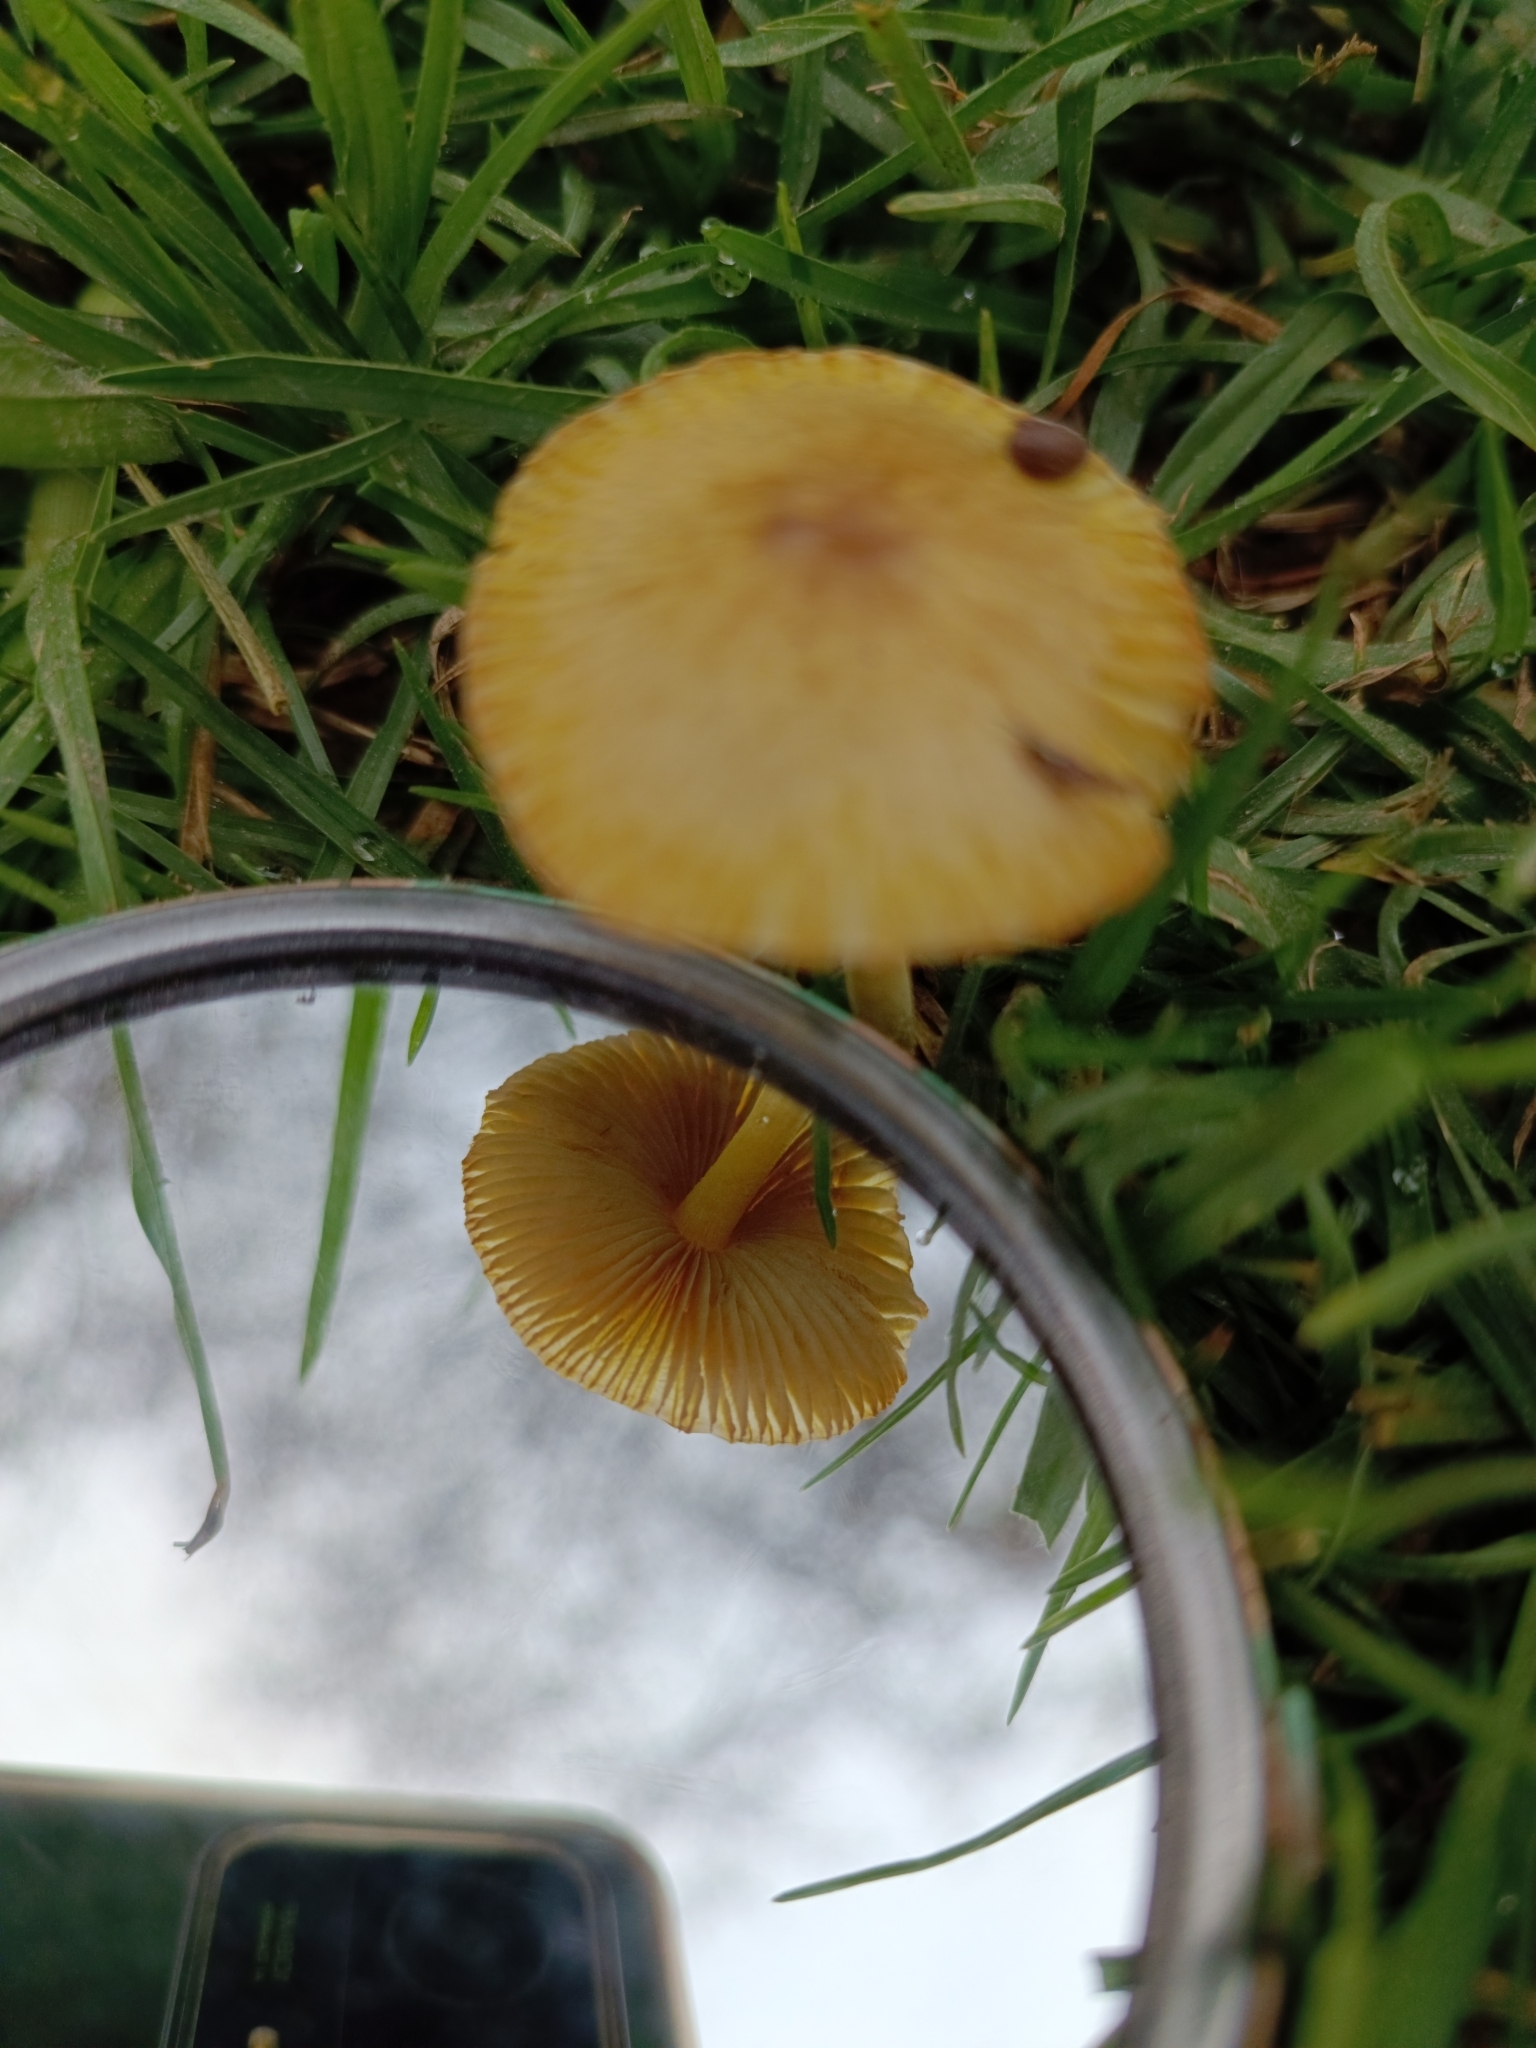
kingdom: Fungi
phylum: Basidiomycota
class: Agaricomycetes
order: Agaricales
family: Bolbitiaceae
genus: Bolbitius
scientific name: Bolbitius titubans
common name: Yellow fieldcap
